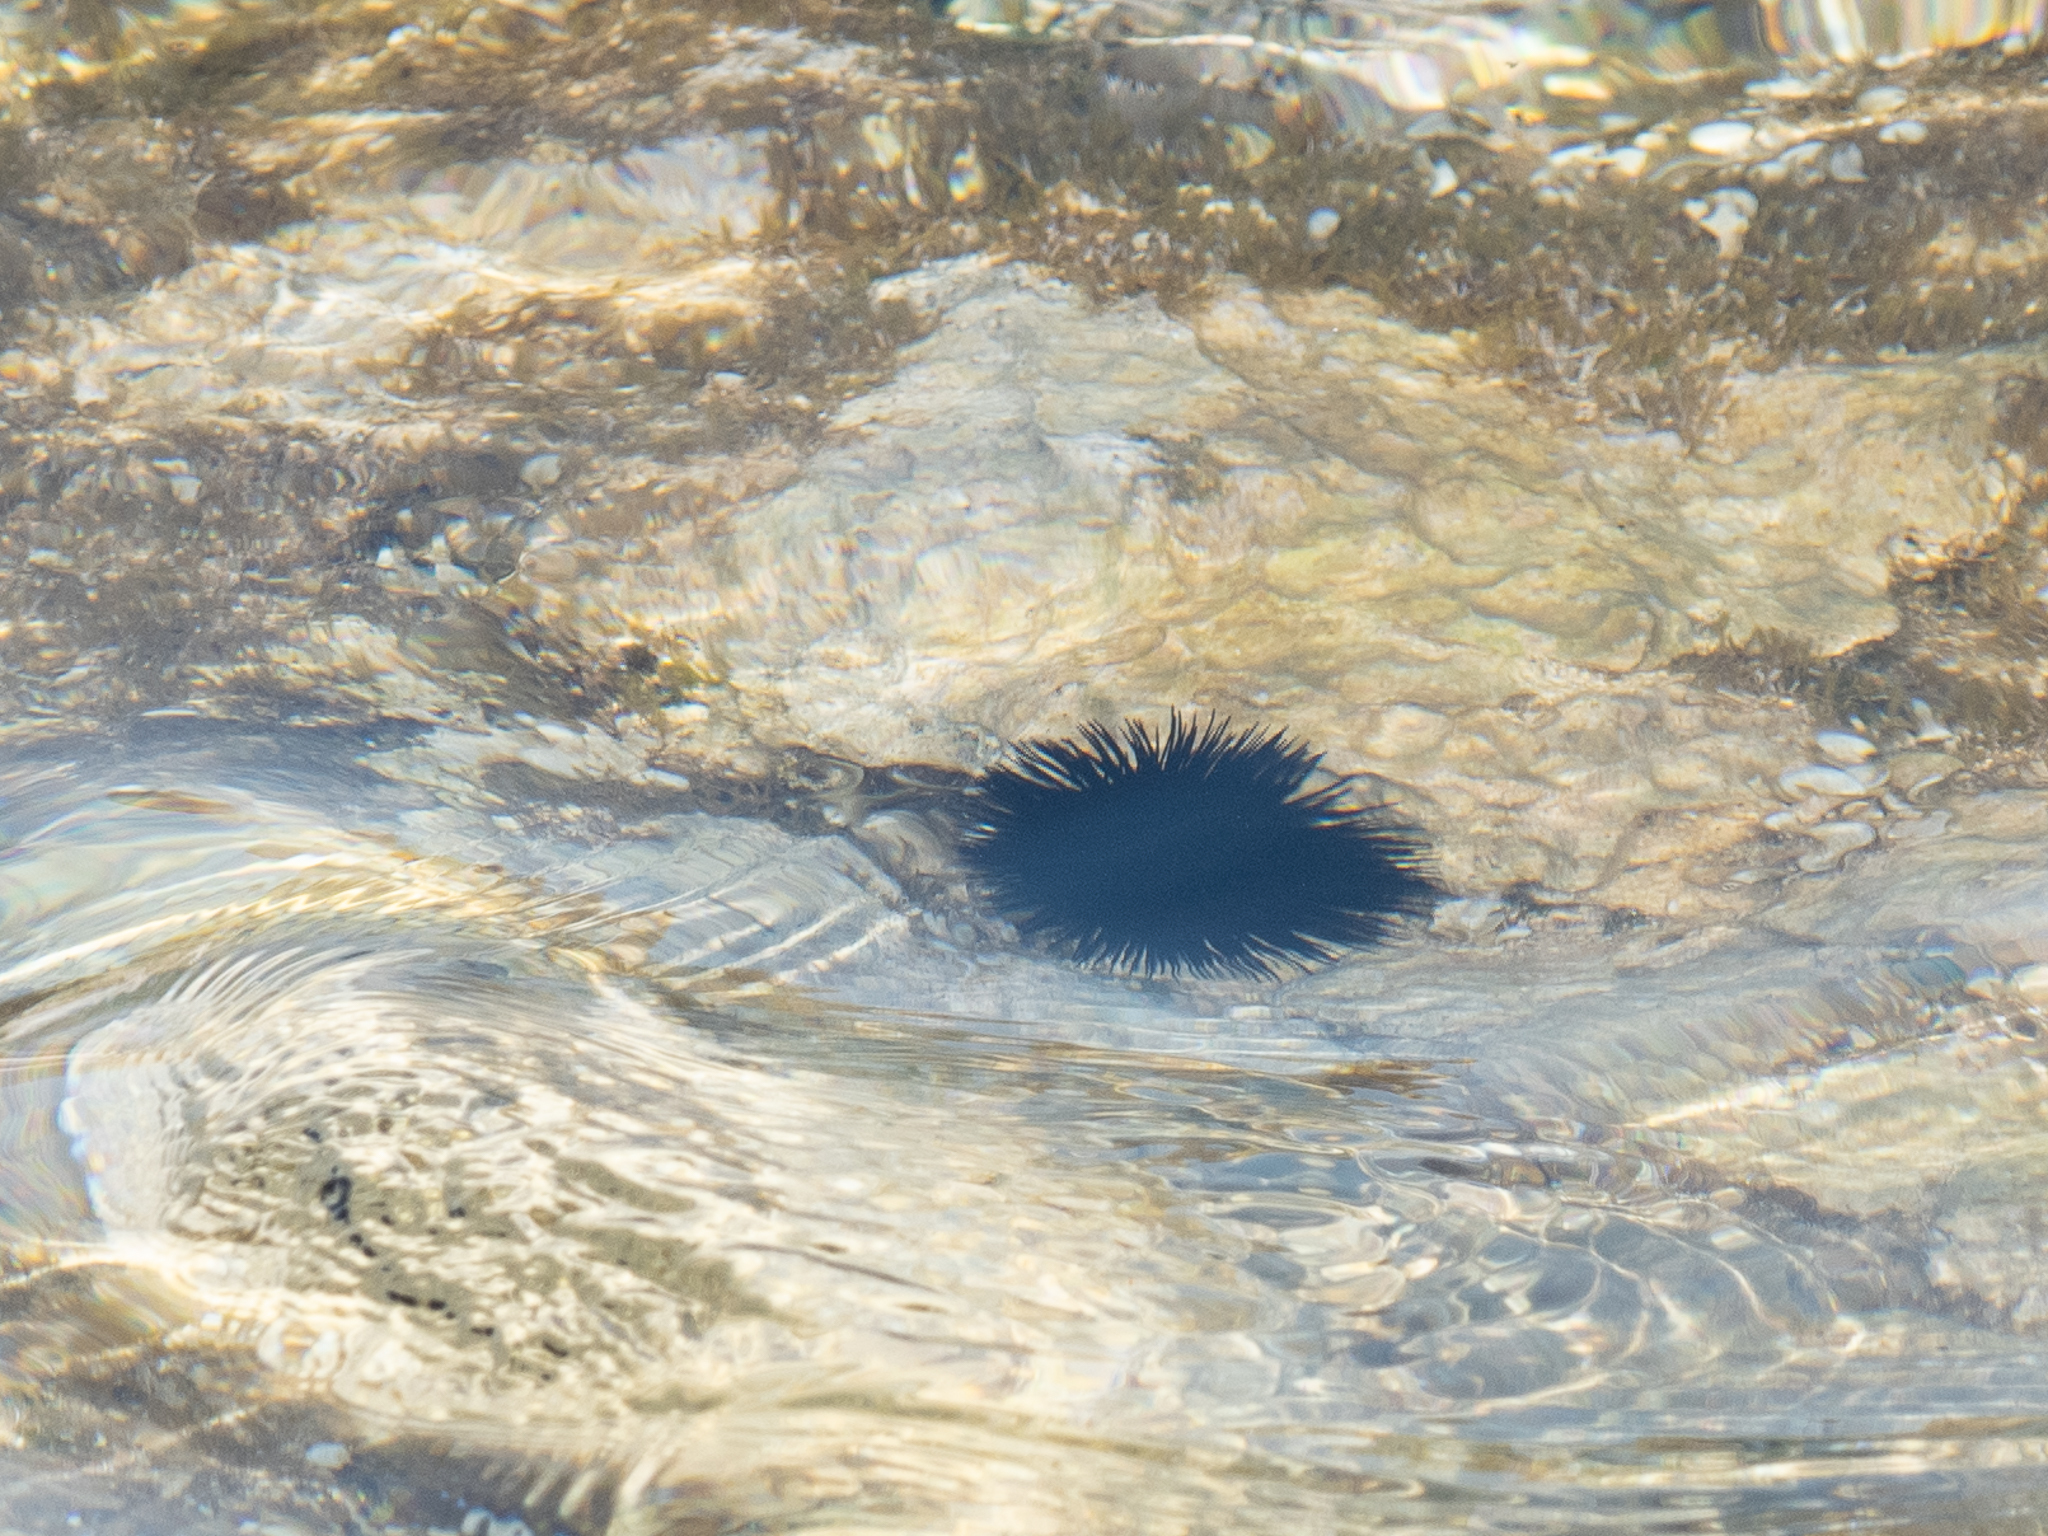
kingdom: Animalia
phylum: Echinodermata
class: Echinoidea
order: Arbacioida
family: Arbaciidae
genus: Arbacia
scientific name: Arbacia lixula
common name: Black sea urchin
